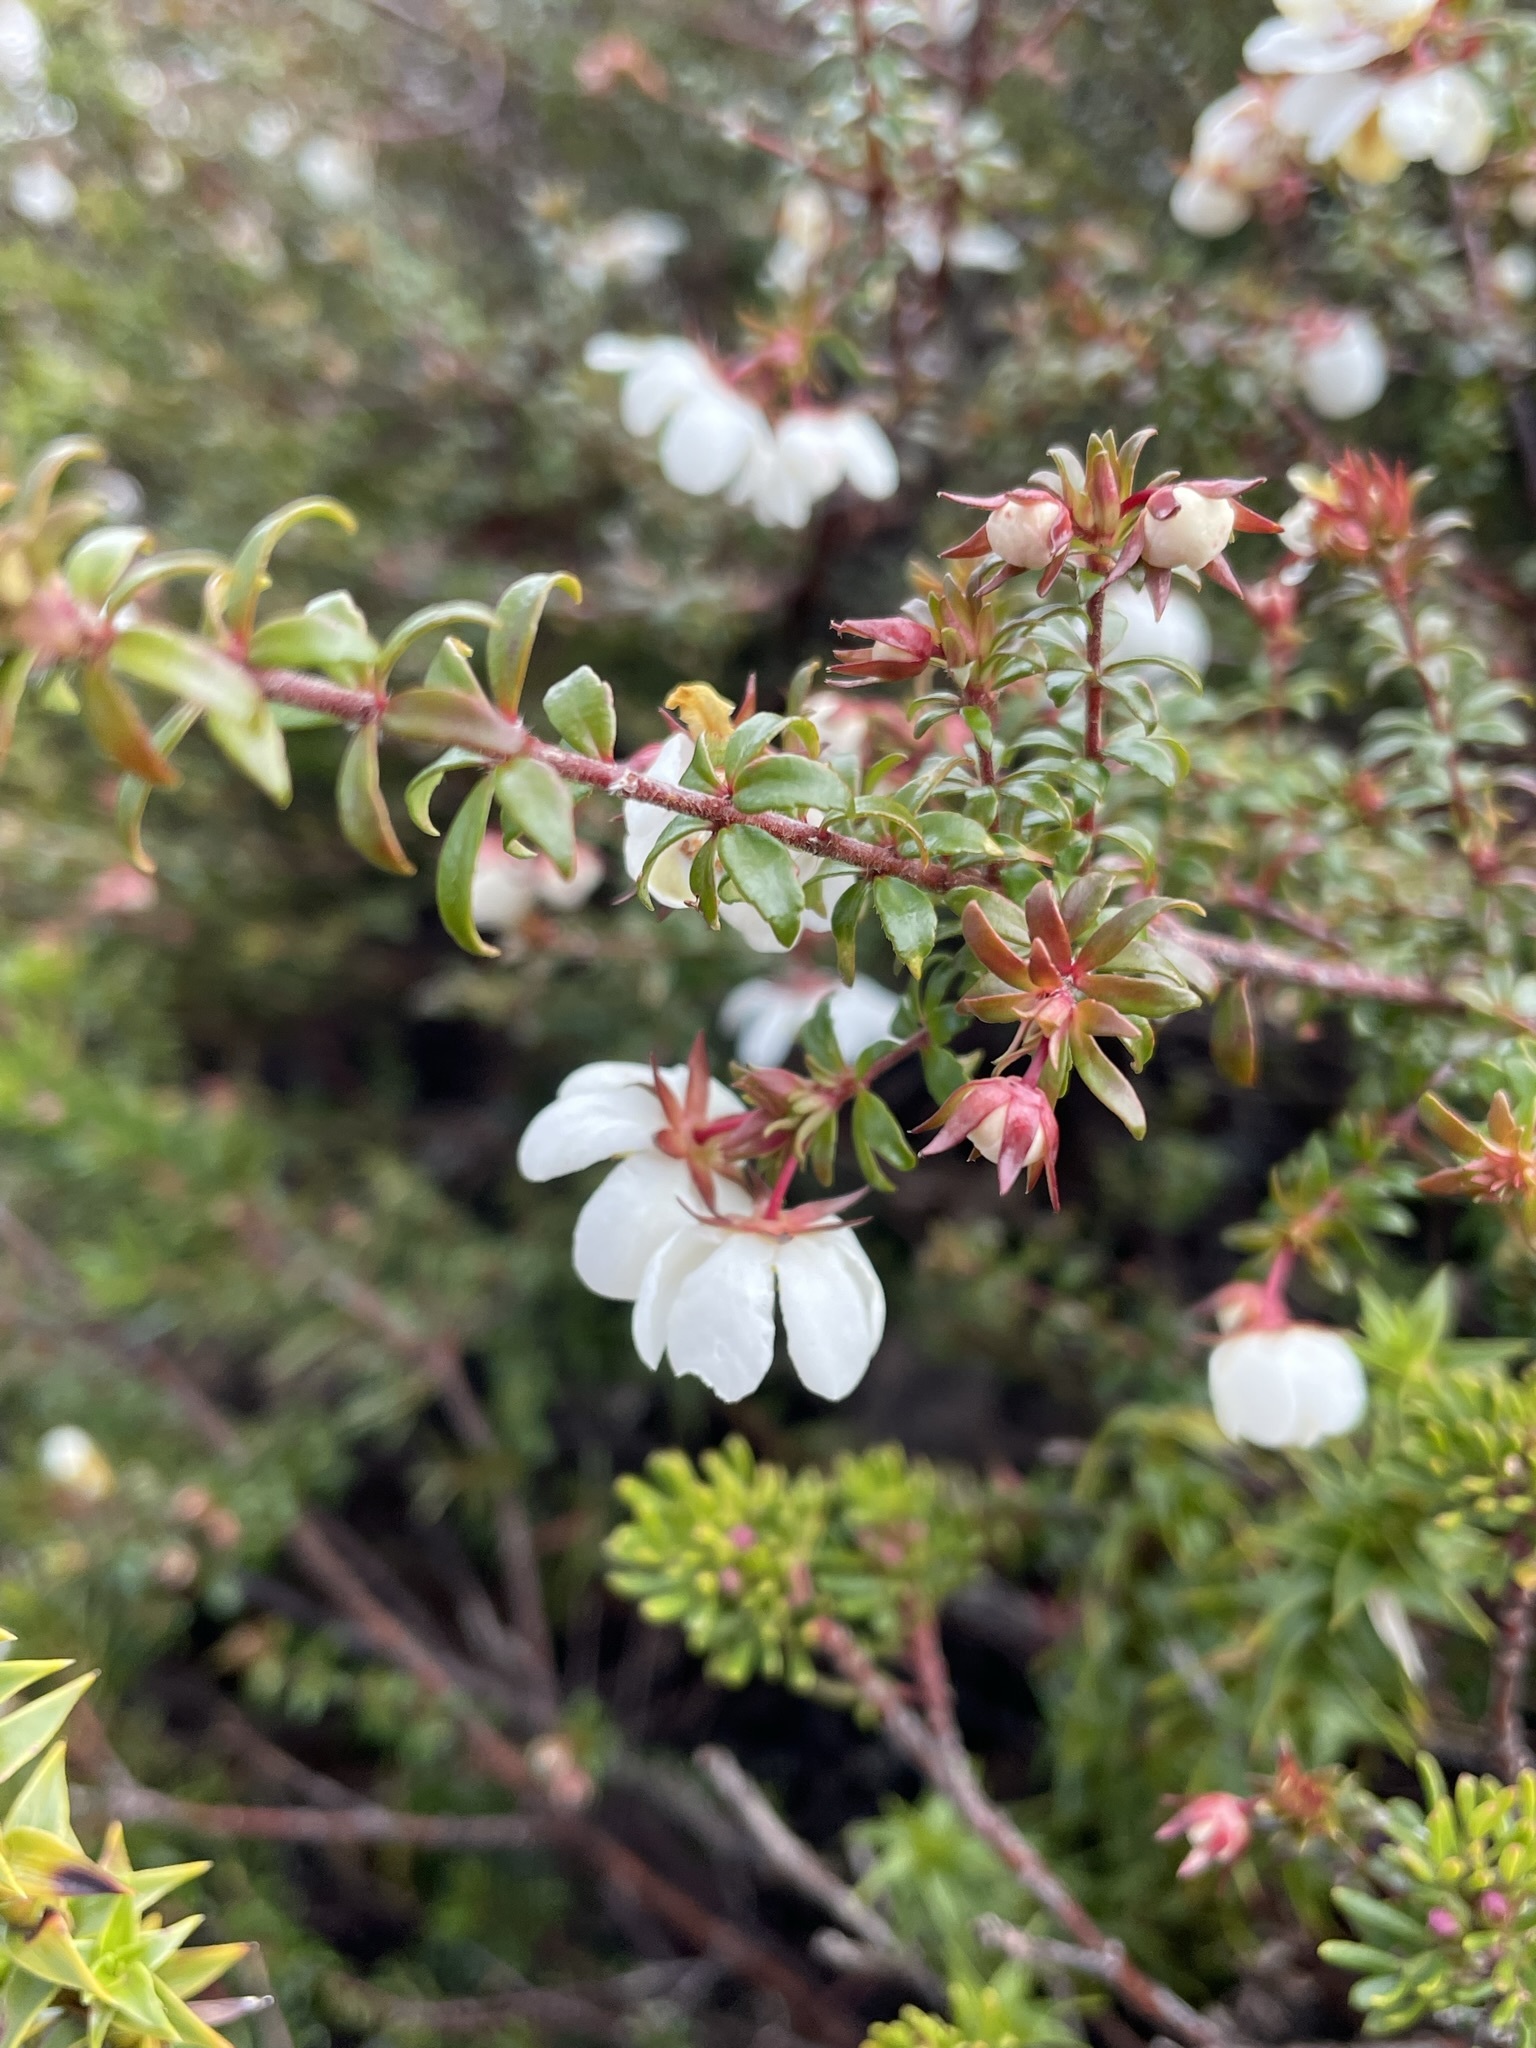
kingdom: Plantae
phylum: Tracheophyta
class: Magnoliopsida
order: Oxalidales
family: Cunoniaceae
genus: Bauera
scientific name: Bauera rubioides
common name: River-rose
